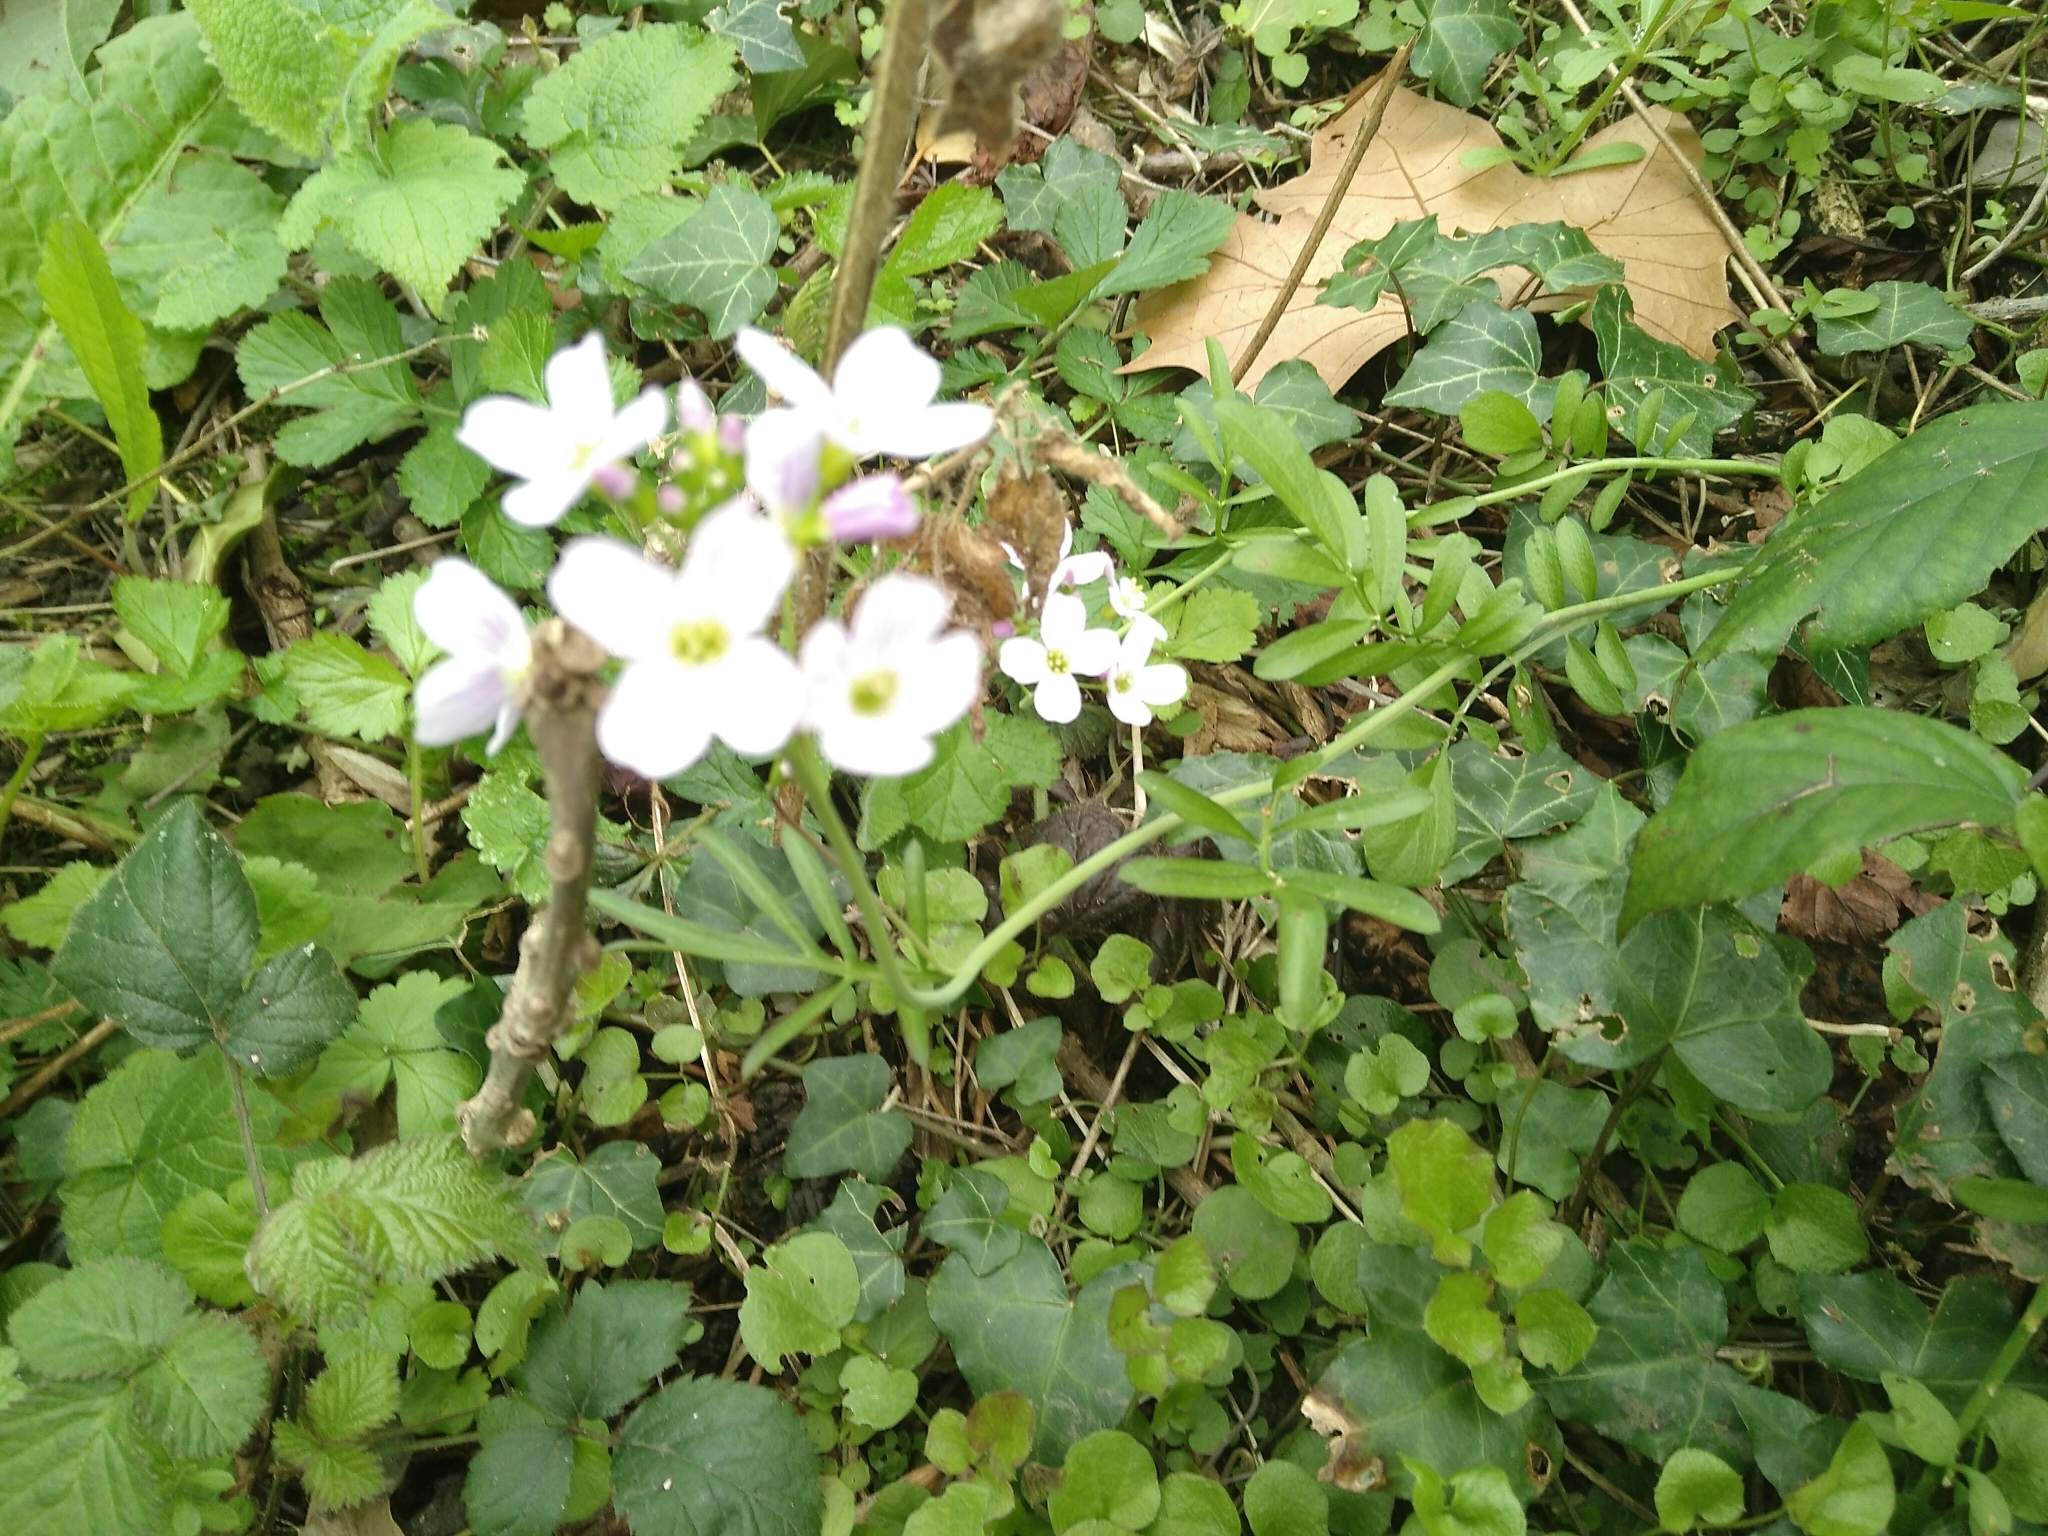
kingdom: Plantae
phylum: Tracheophyta
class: Magnoliopsida
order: Brassicales
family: Brassicaceae
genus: Cardamine
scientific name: Cardamine pratensis
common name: Cuckoo flower
